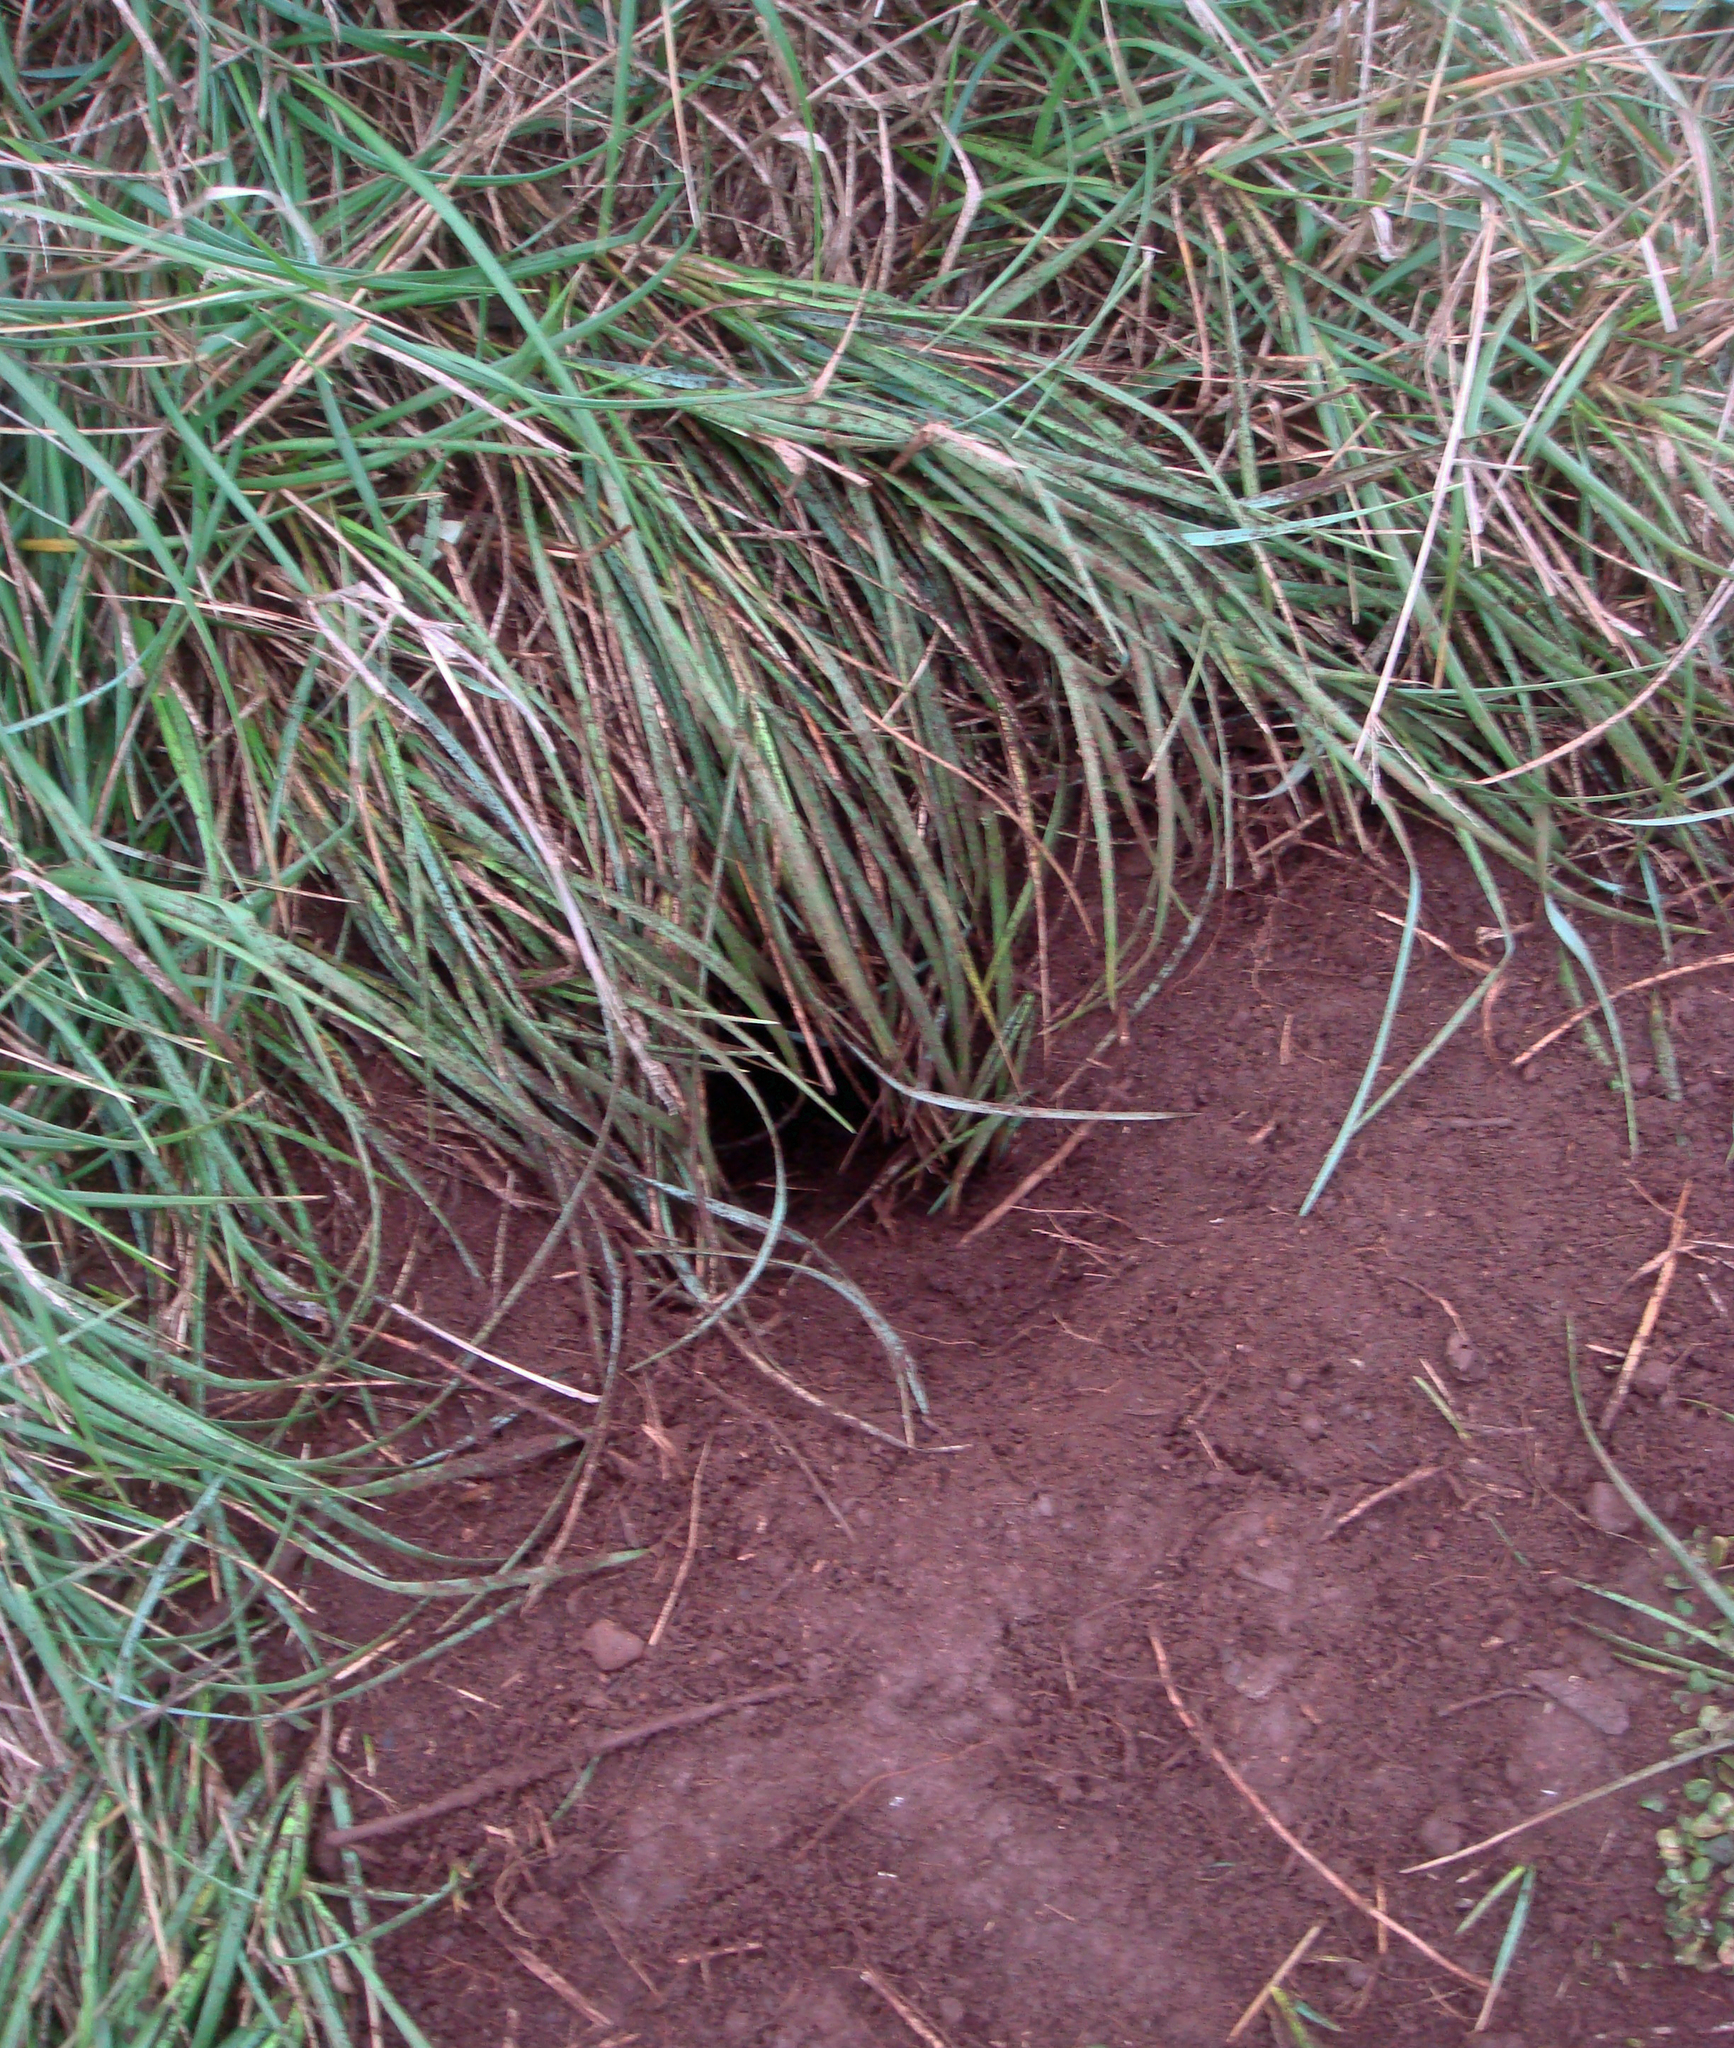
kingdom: Animalia
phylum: Chordata
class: Aves
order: Procellariiformes
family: Pelecanoididae
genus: Pelecanoides
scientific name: Pelecanoides urinatrix
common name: Common diving-petrel
